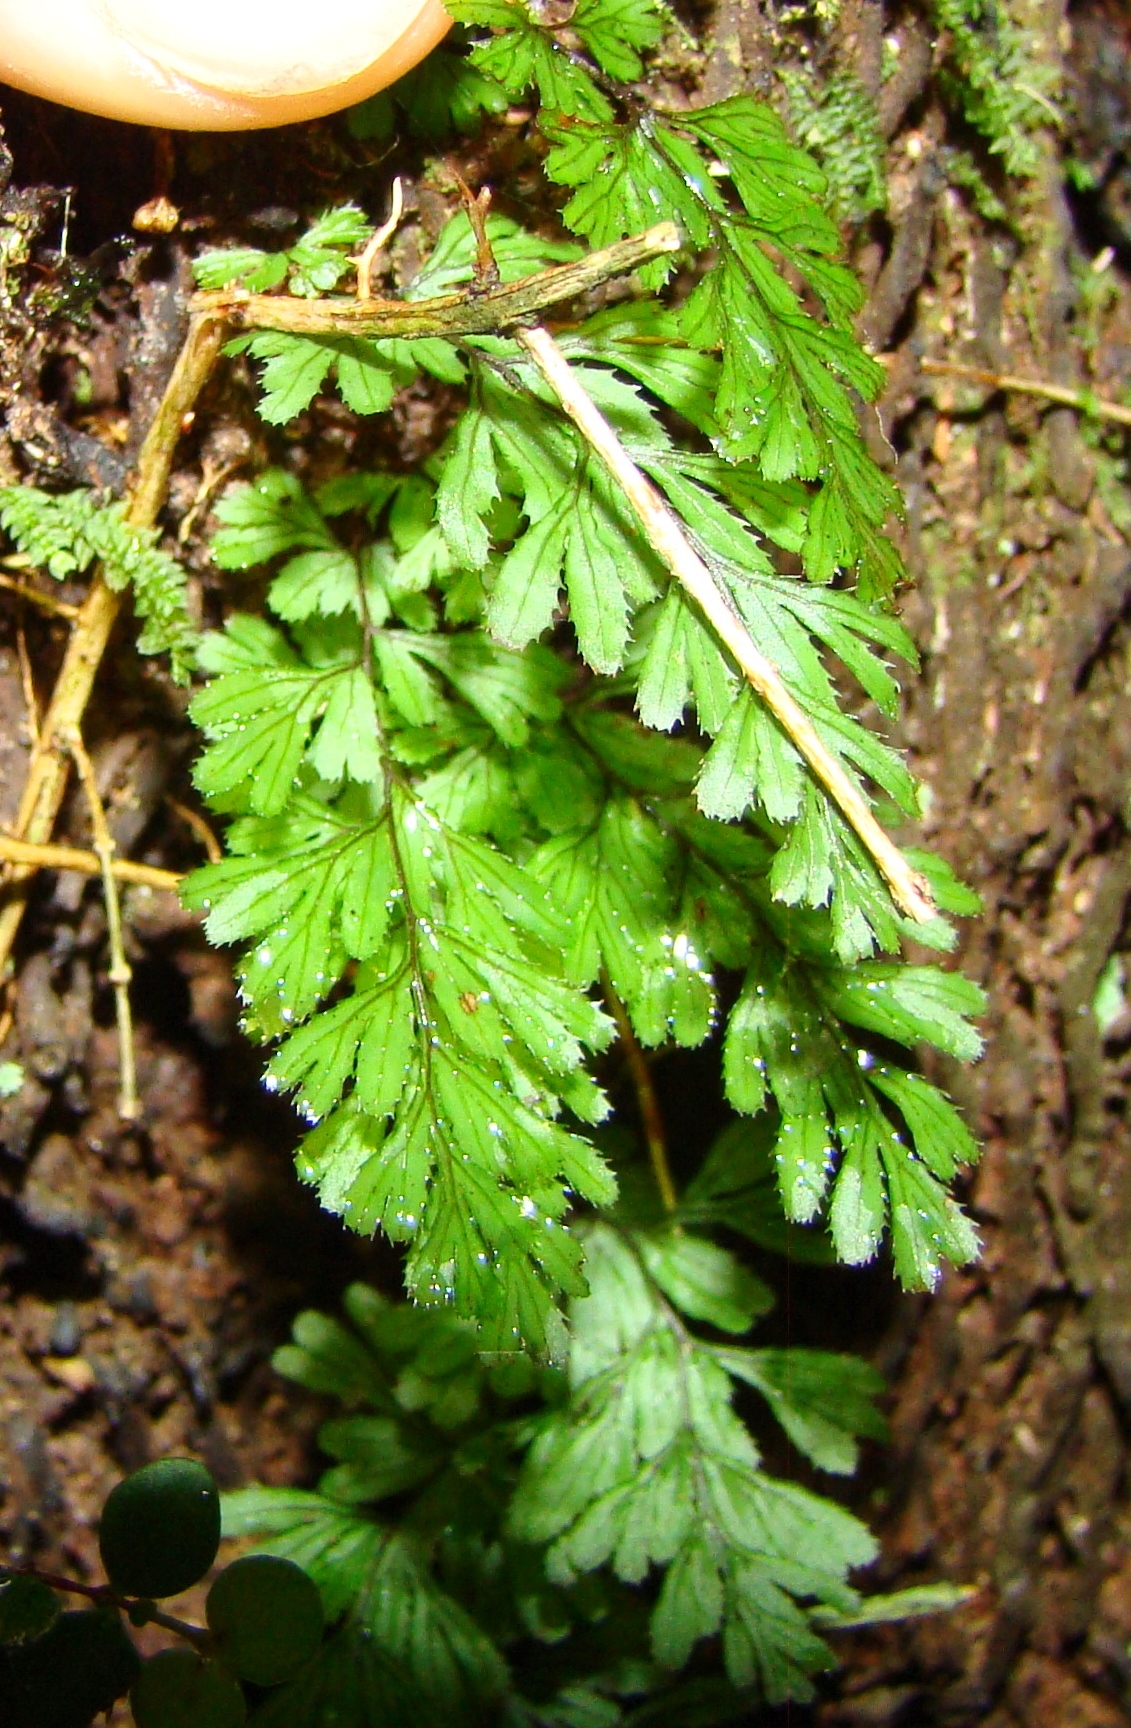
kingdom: Plantae
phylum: Tracheophyta
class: Polypodiopsida
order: Hymenophyllales
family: Hymenophyllaceae
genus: Hymenophyllum
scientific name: Hymenophyllum revolutum
